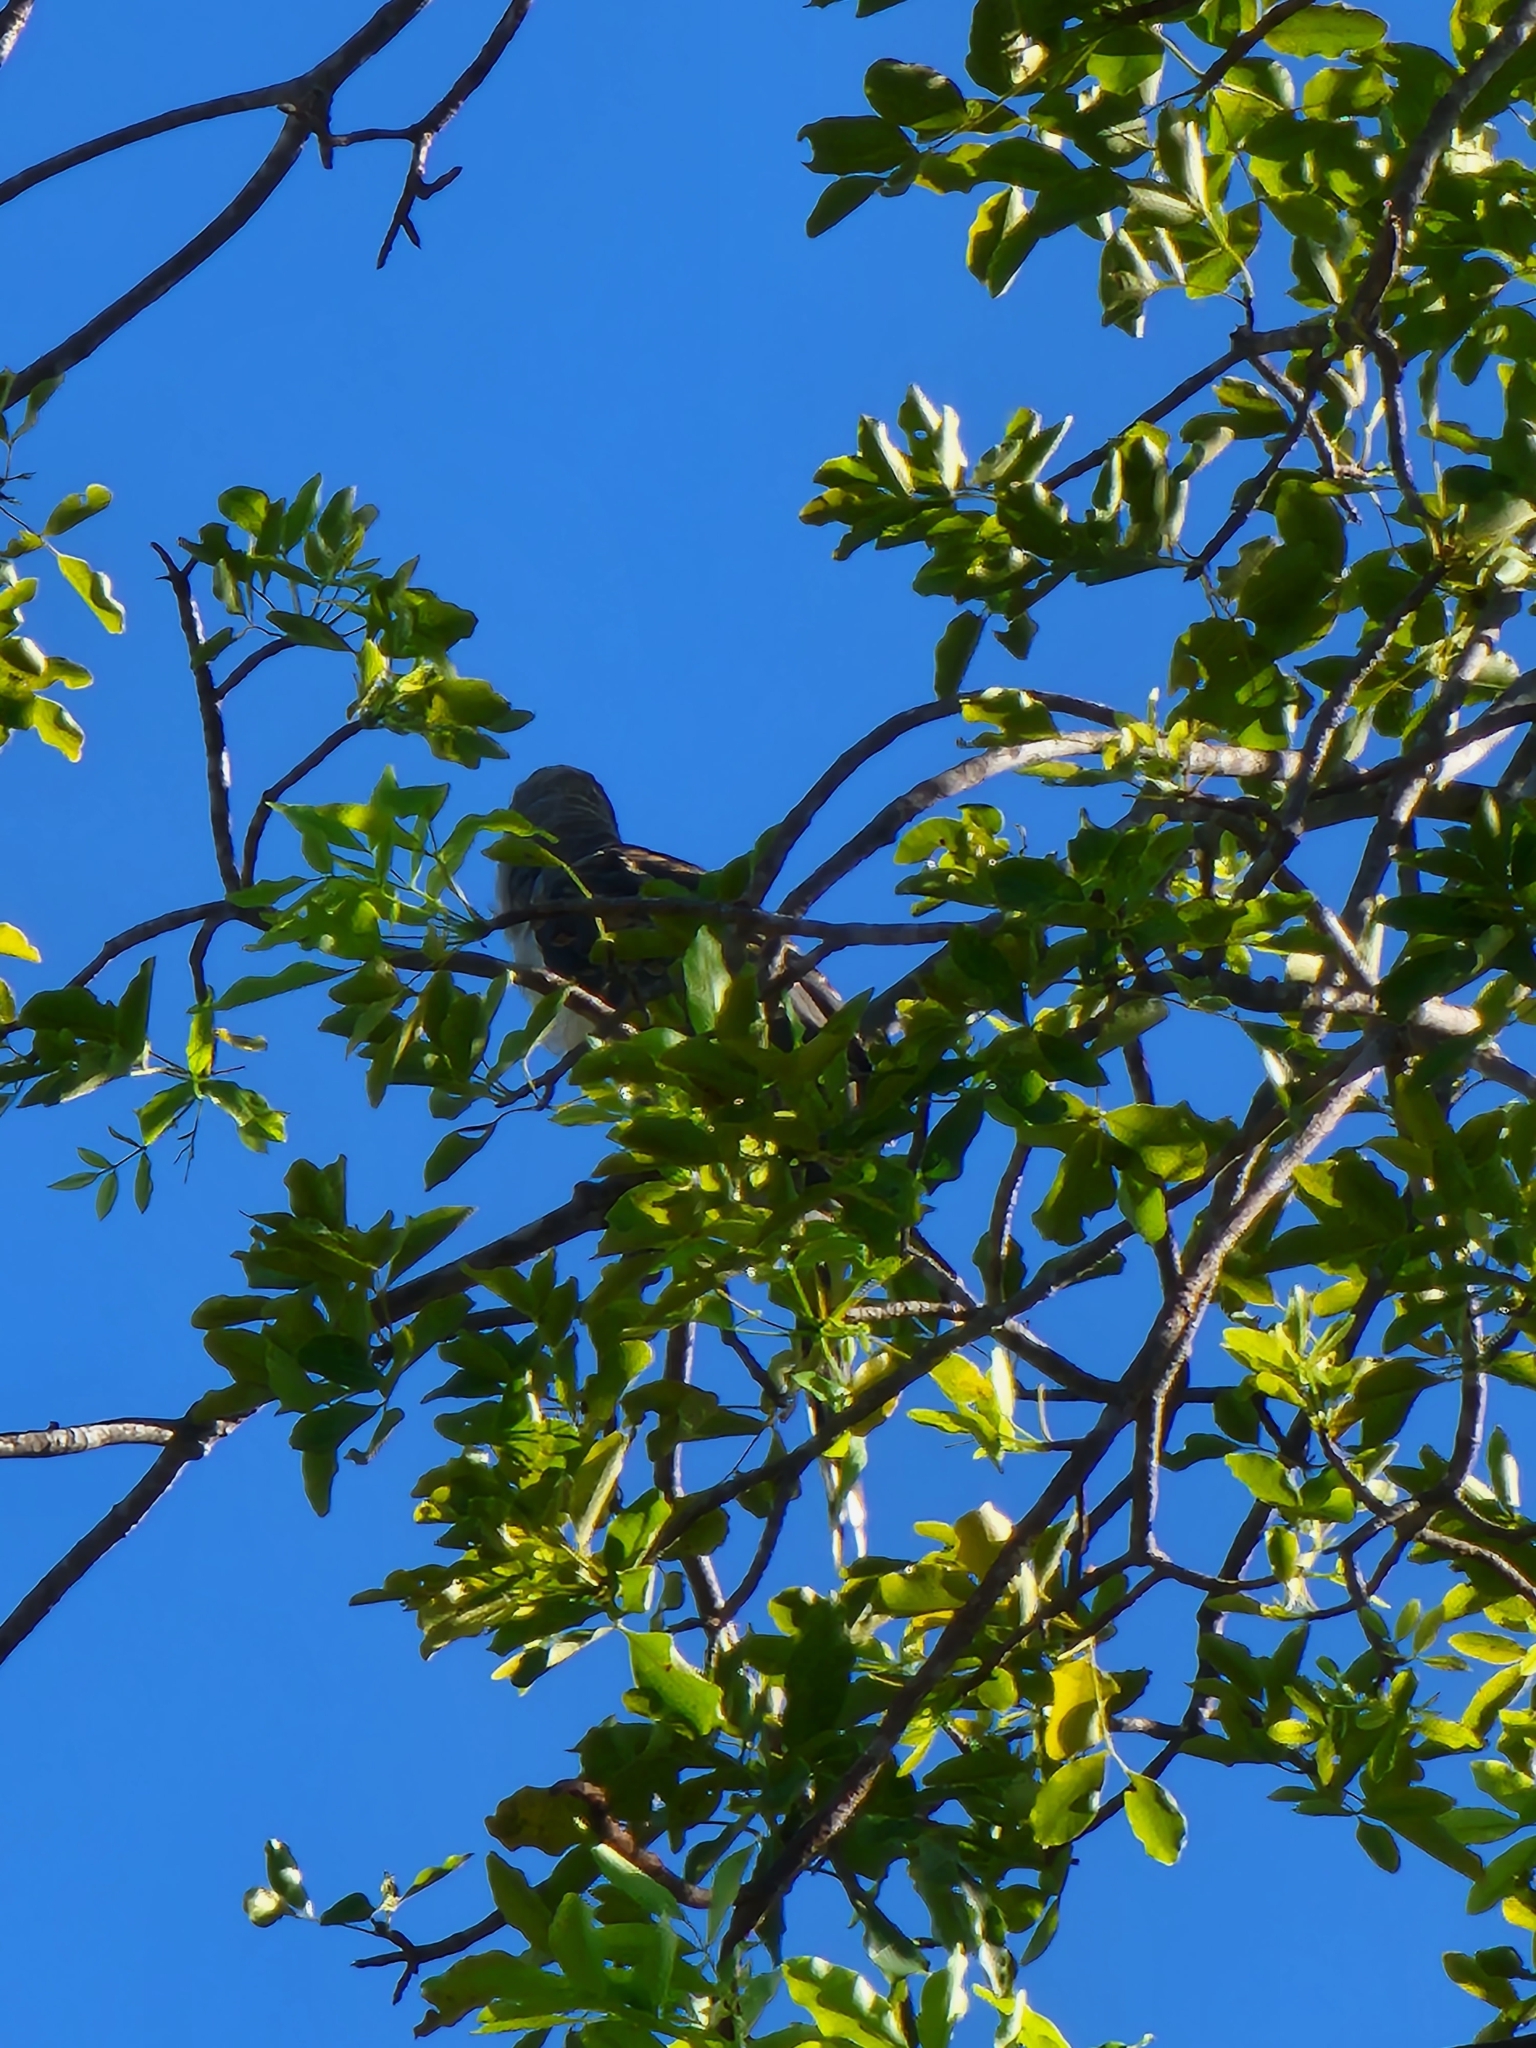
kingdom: Animalia
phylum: Chordata
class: Aves
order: Cuculiformes
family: Cuculidae
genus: Scythrops
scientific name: Scythrops novaehollandiae
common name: Channel-billed cuckoo
